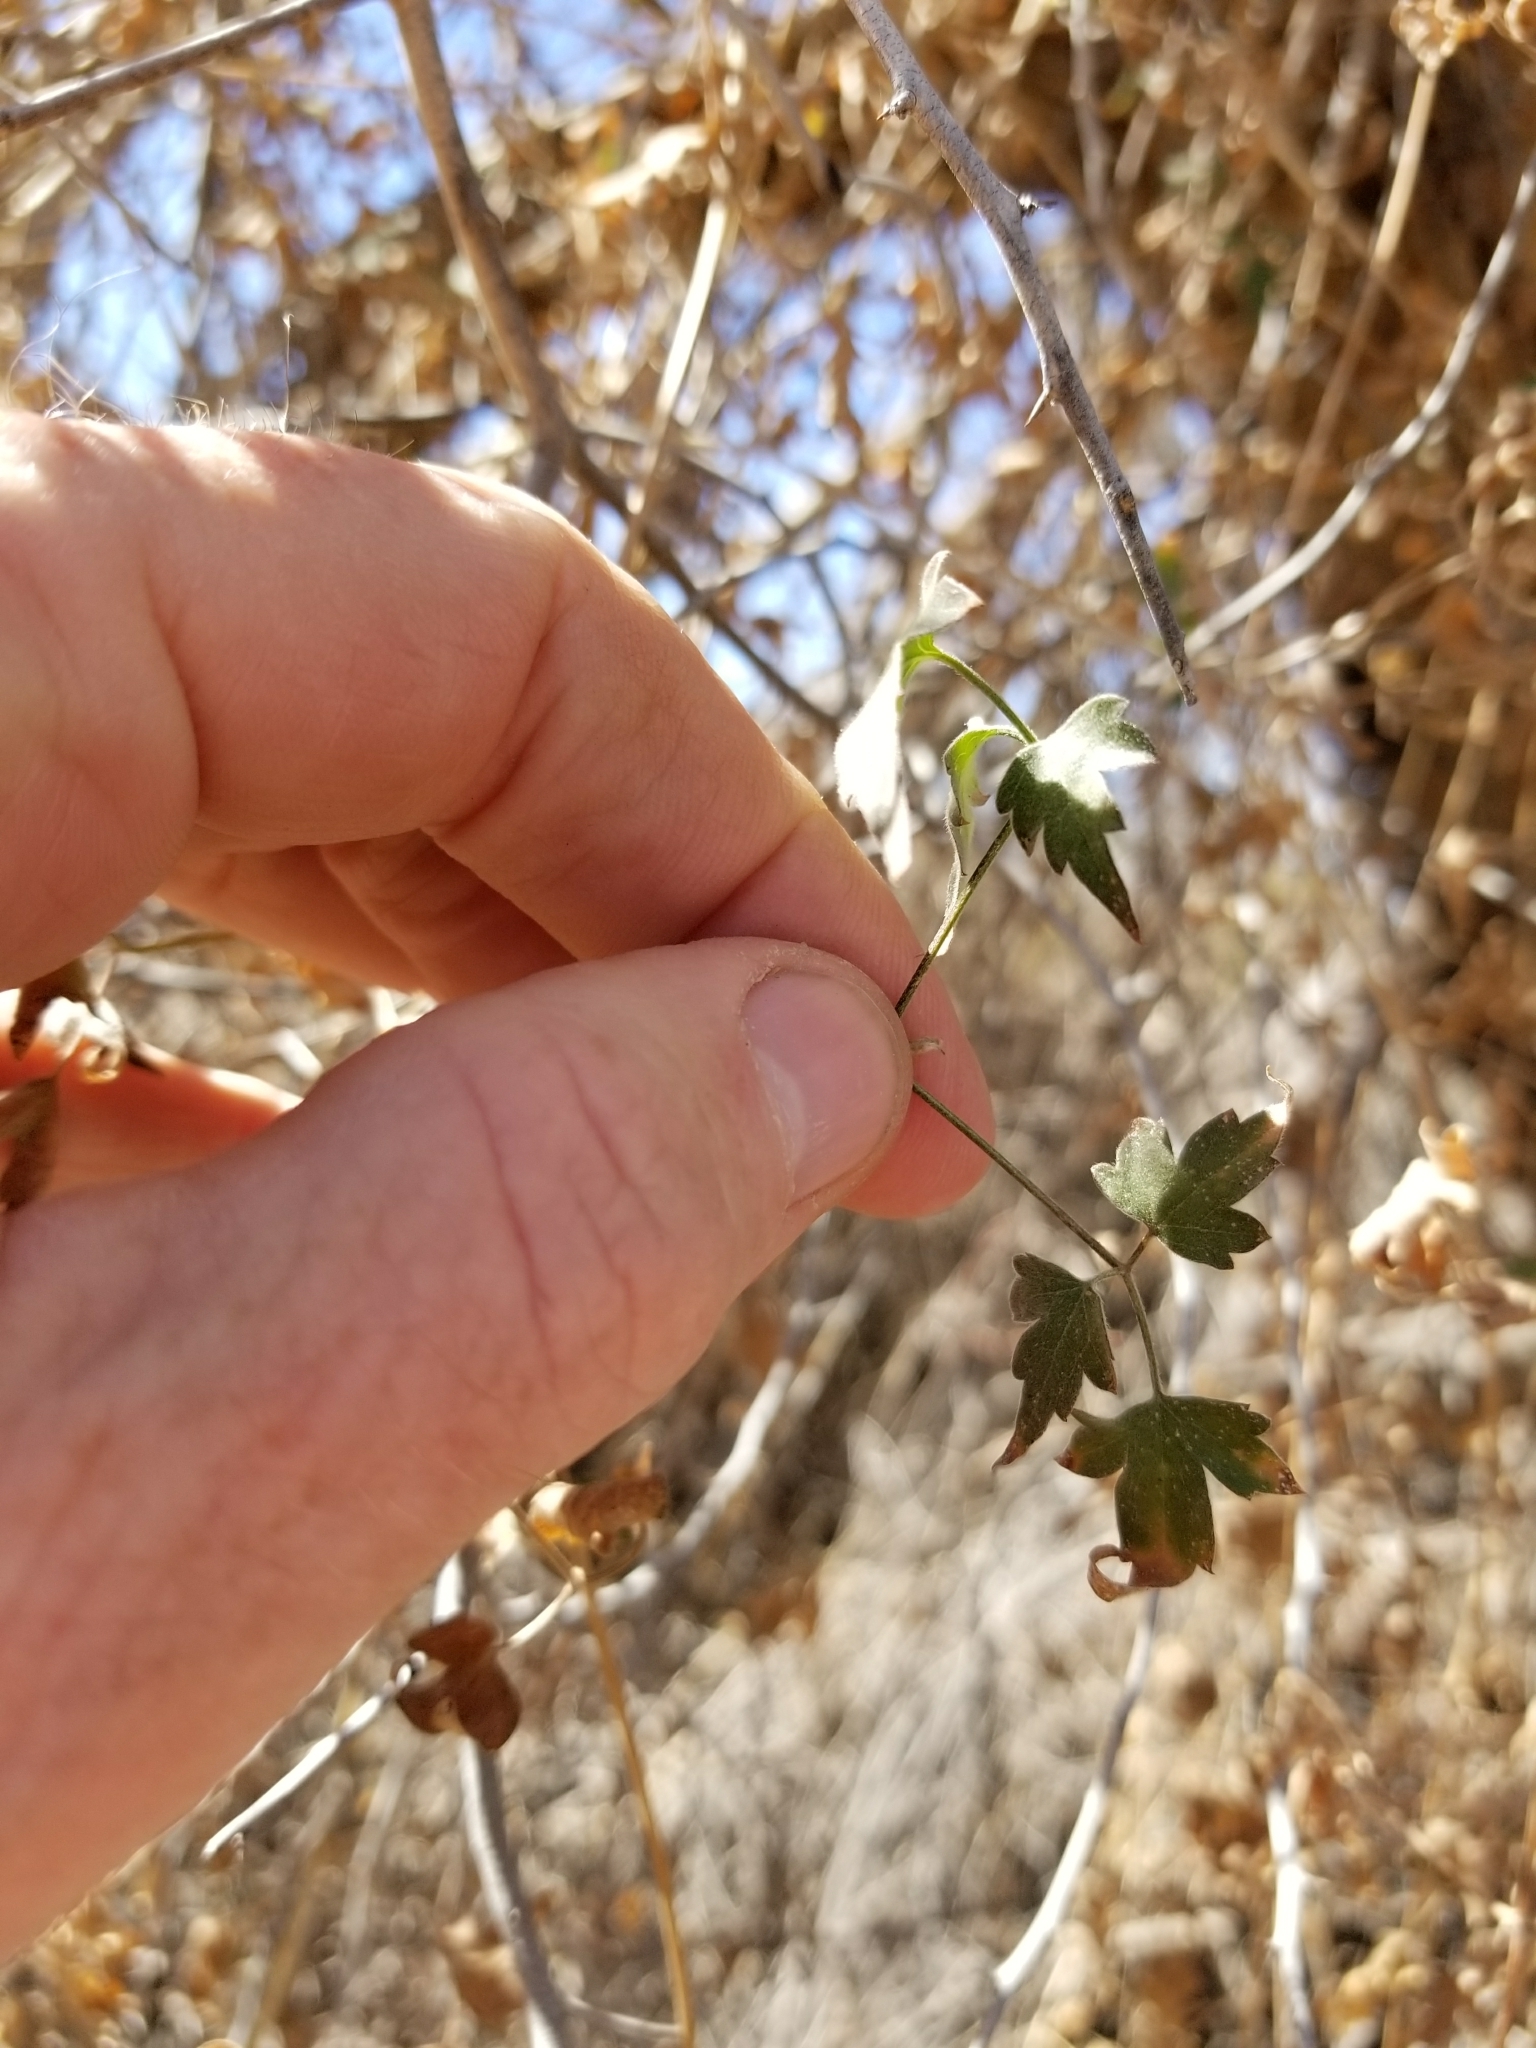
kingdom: Plantae
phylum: Tracheophyta
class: Magnoliopsida
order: Ranunculales
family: Ranunculaceae
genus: Clematis
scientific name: Clematis drummondii
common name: Texas virgin's bower
